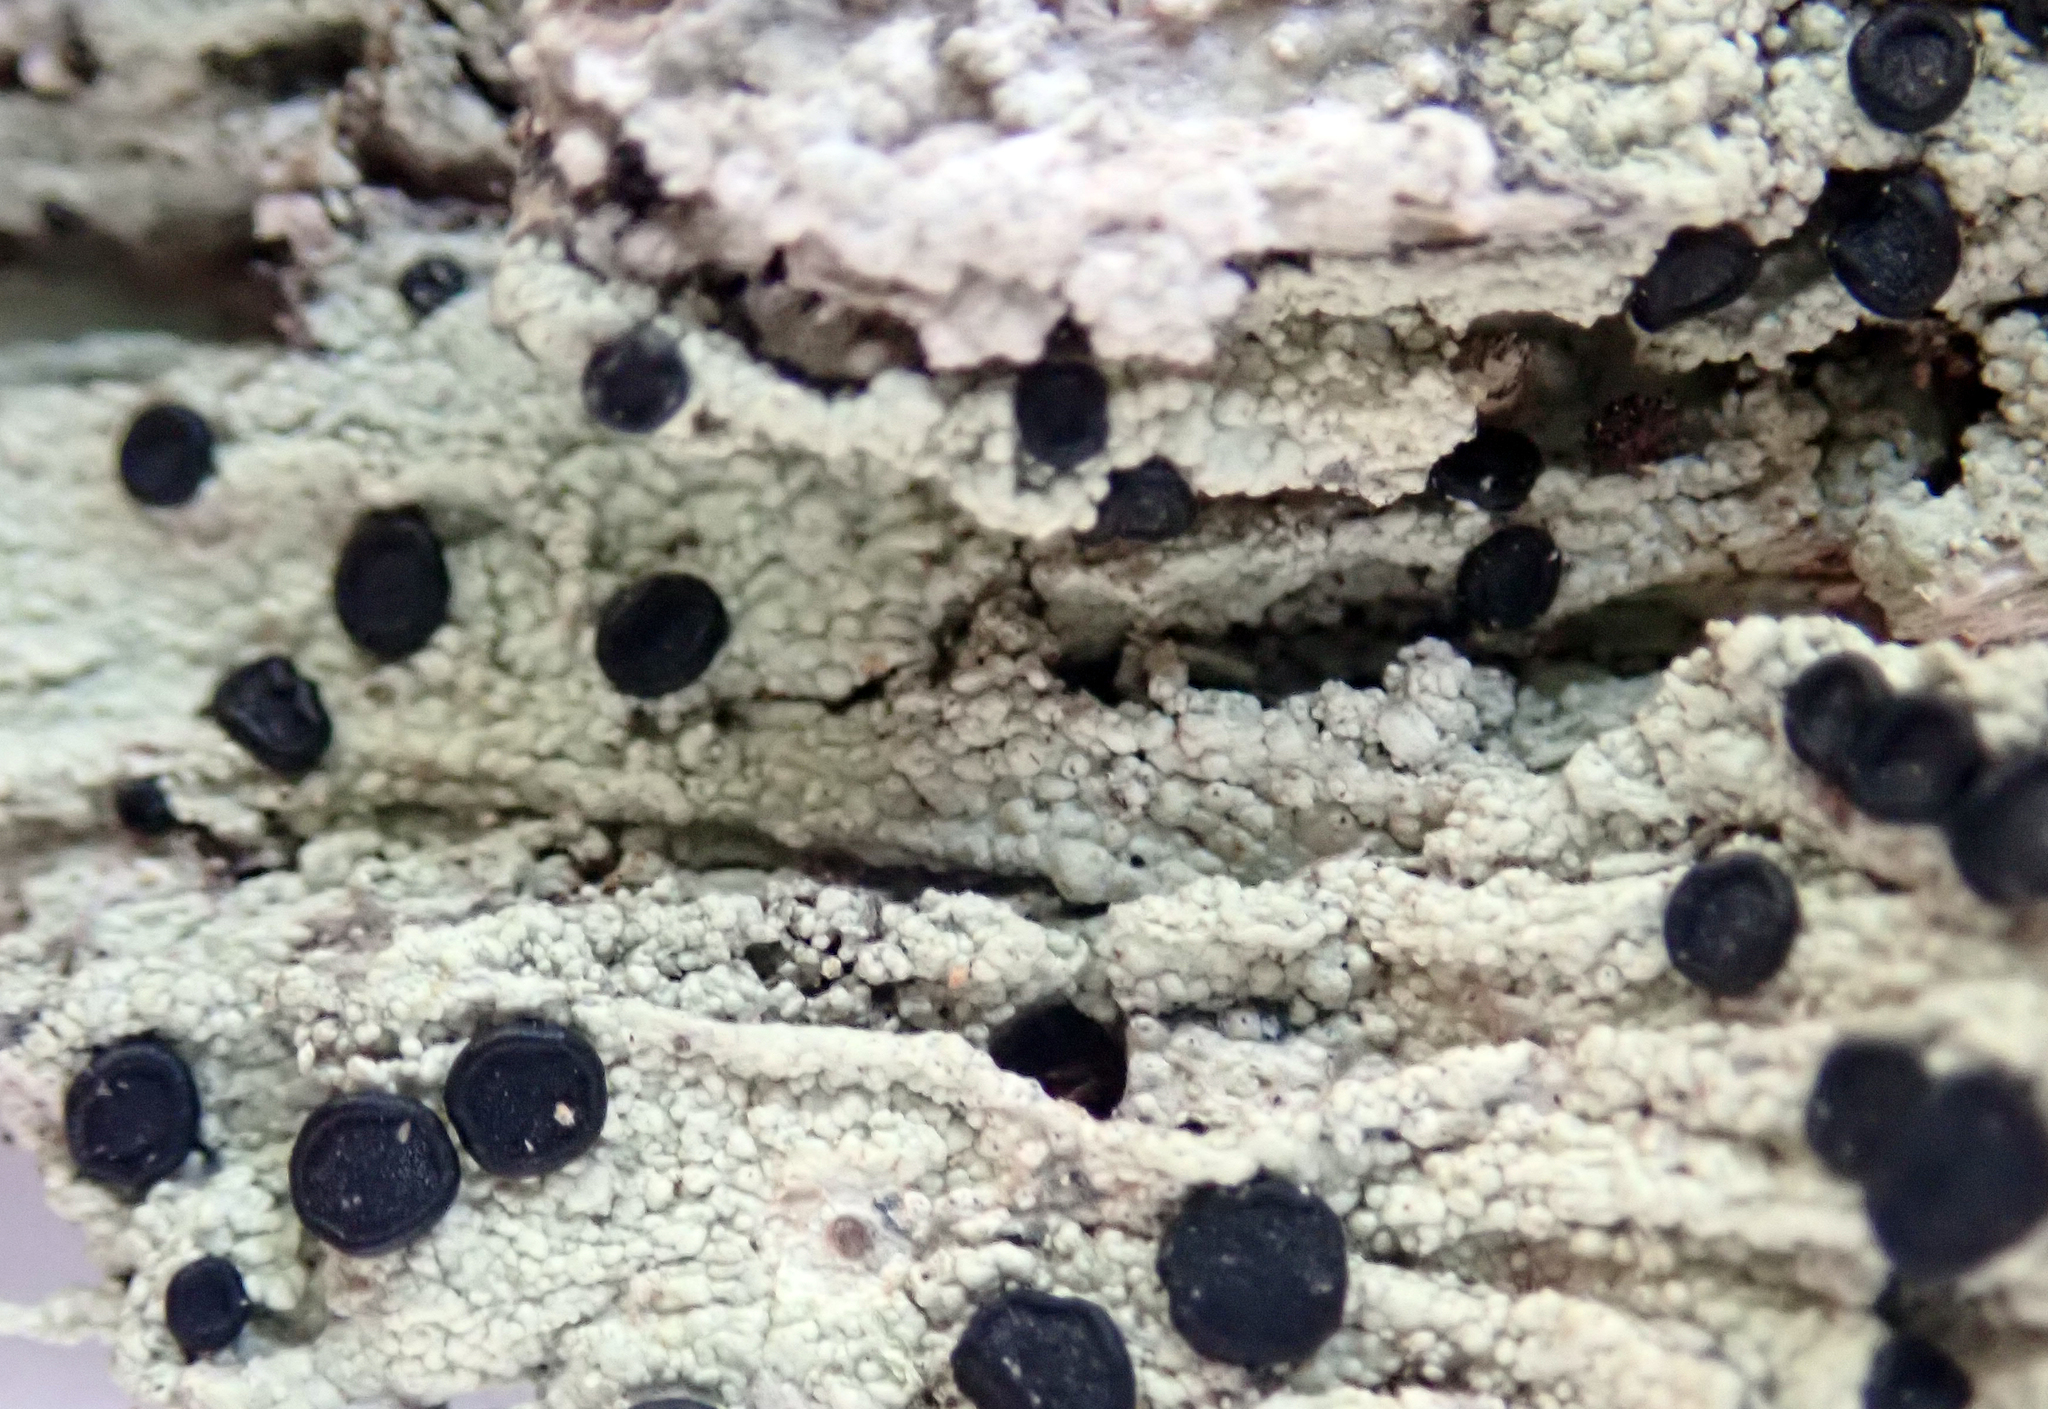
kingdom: Fungi
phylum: Ascomycota
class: Lecanoromycetes
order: Teloschistales
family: Megalosporaceae
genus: Megalospora
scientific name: Megalospora atrorubricans
